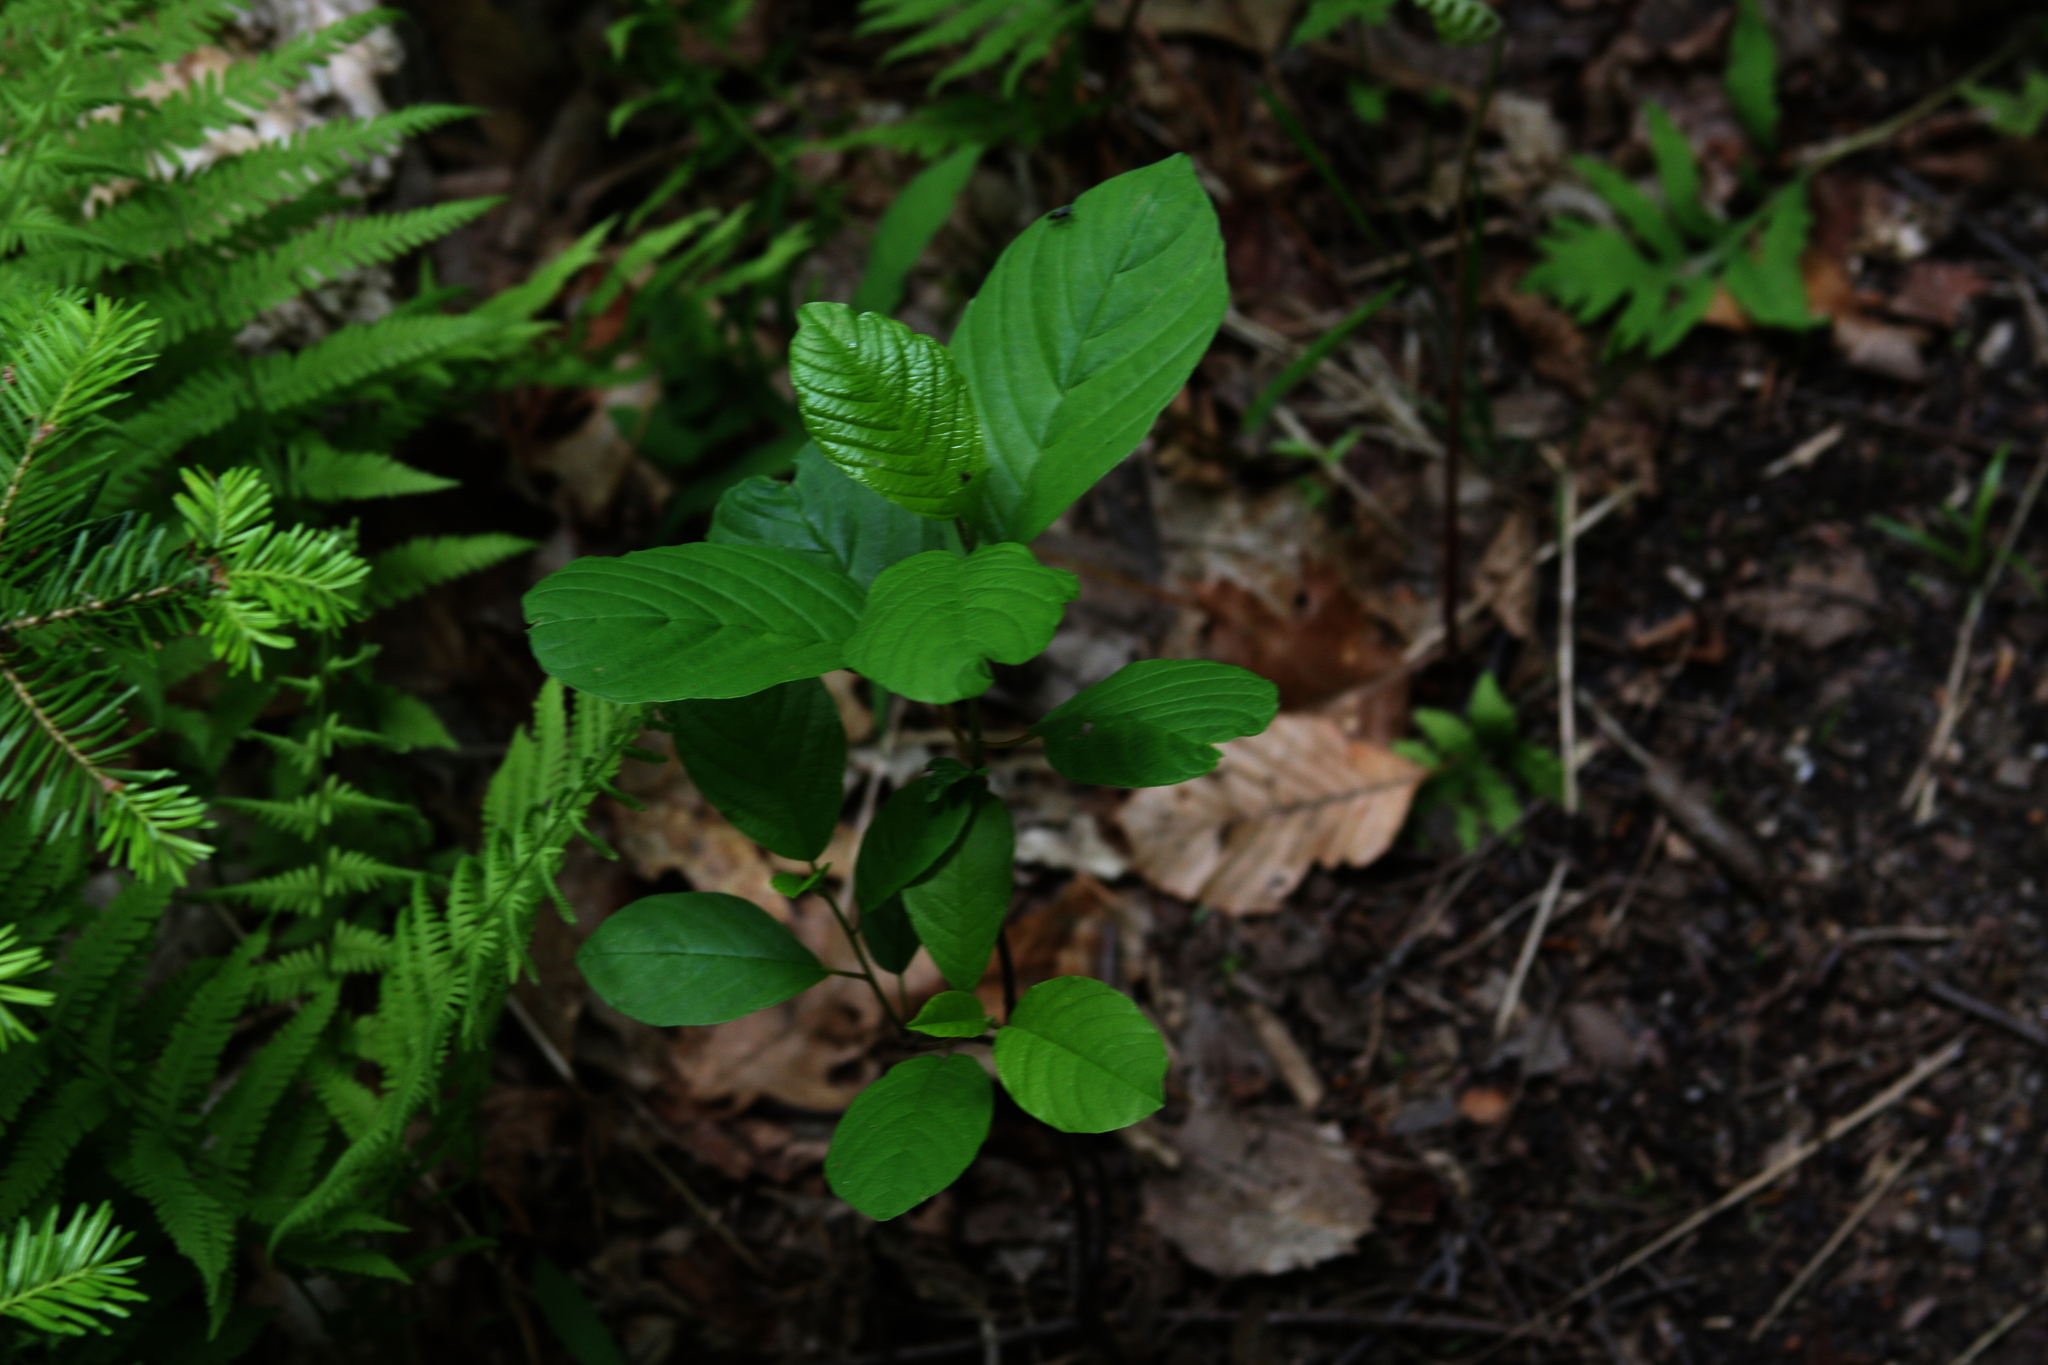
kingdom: Plantae
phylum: Tracheophyta
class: Magnoliopsida
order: Rosales
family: Rhamnaceae
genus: Frangula
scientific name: Frangula alnus
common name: Alder buckthorn
